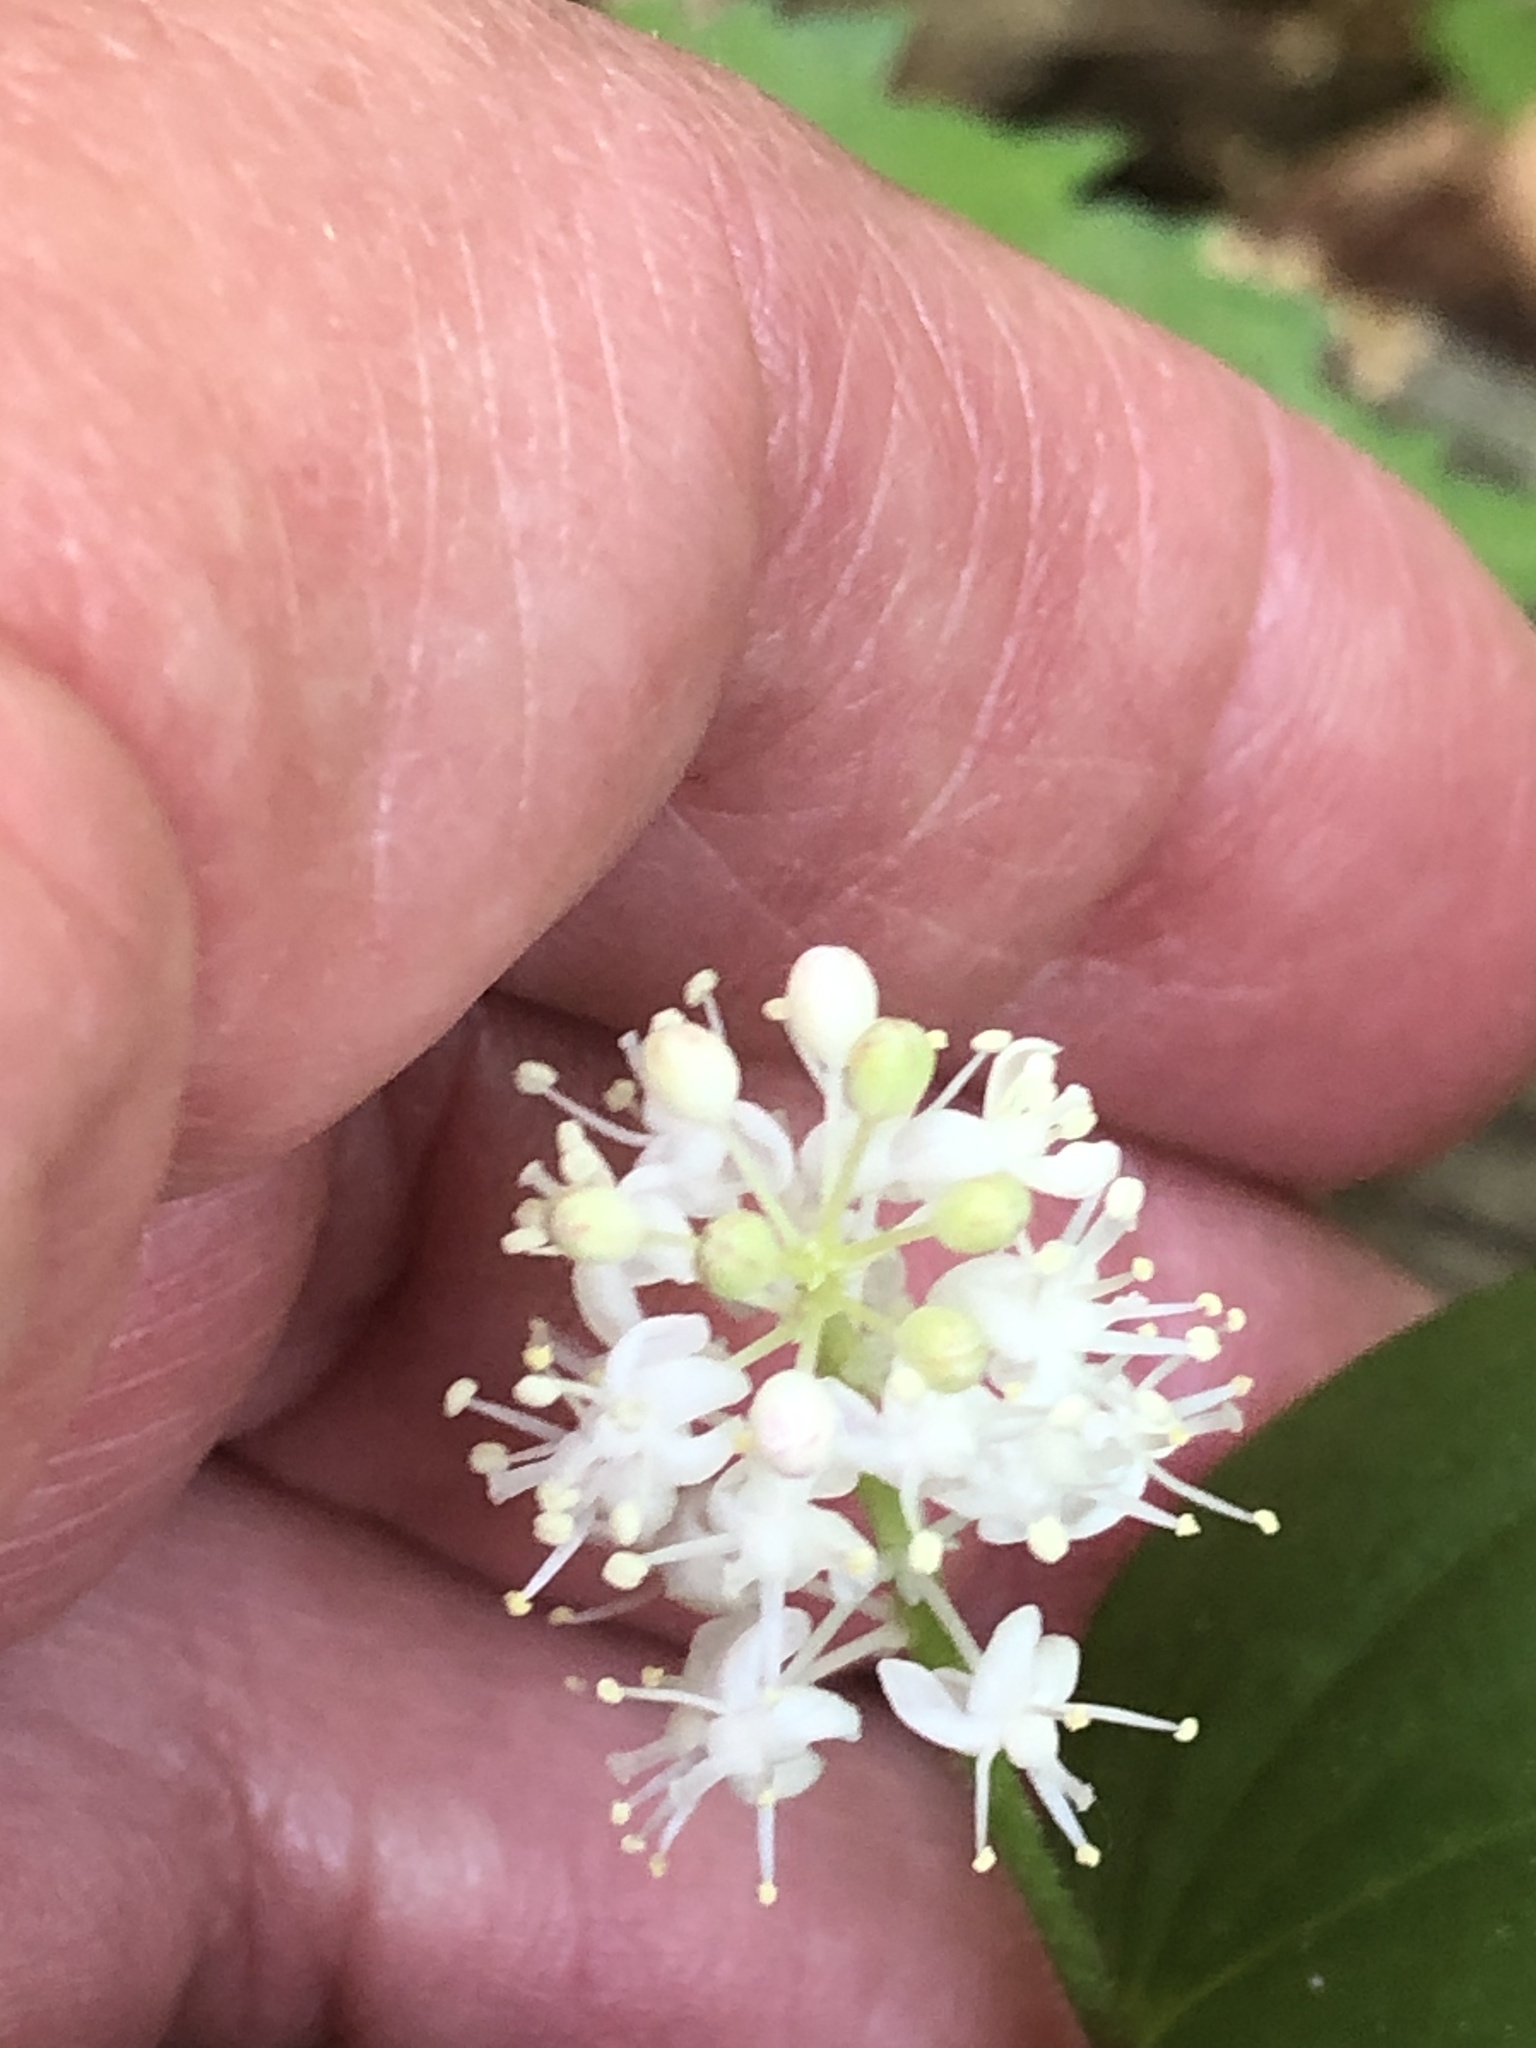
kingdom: Plantae
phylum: Tracheophyta
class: Liliopsida
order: Asparagales
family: Asparagaceae
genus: Maianthemum
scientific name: Maianthemum canadense
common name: False lily-of-the-valley
